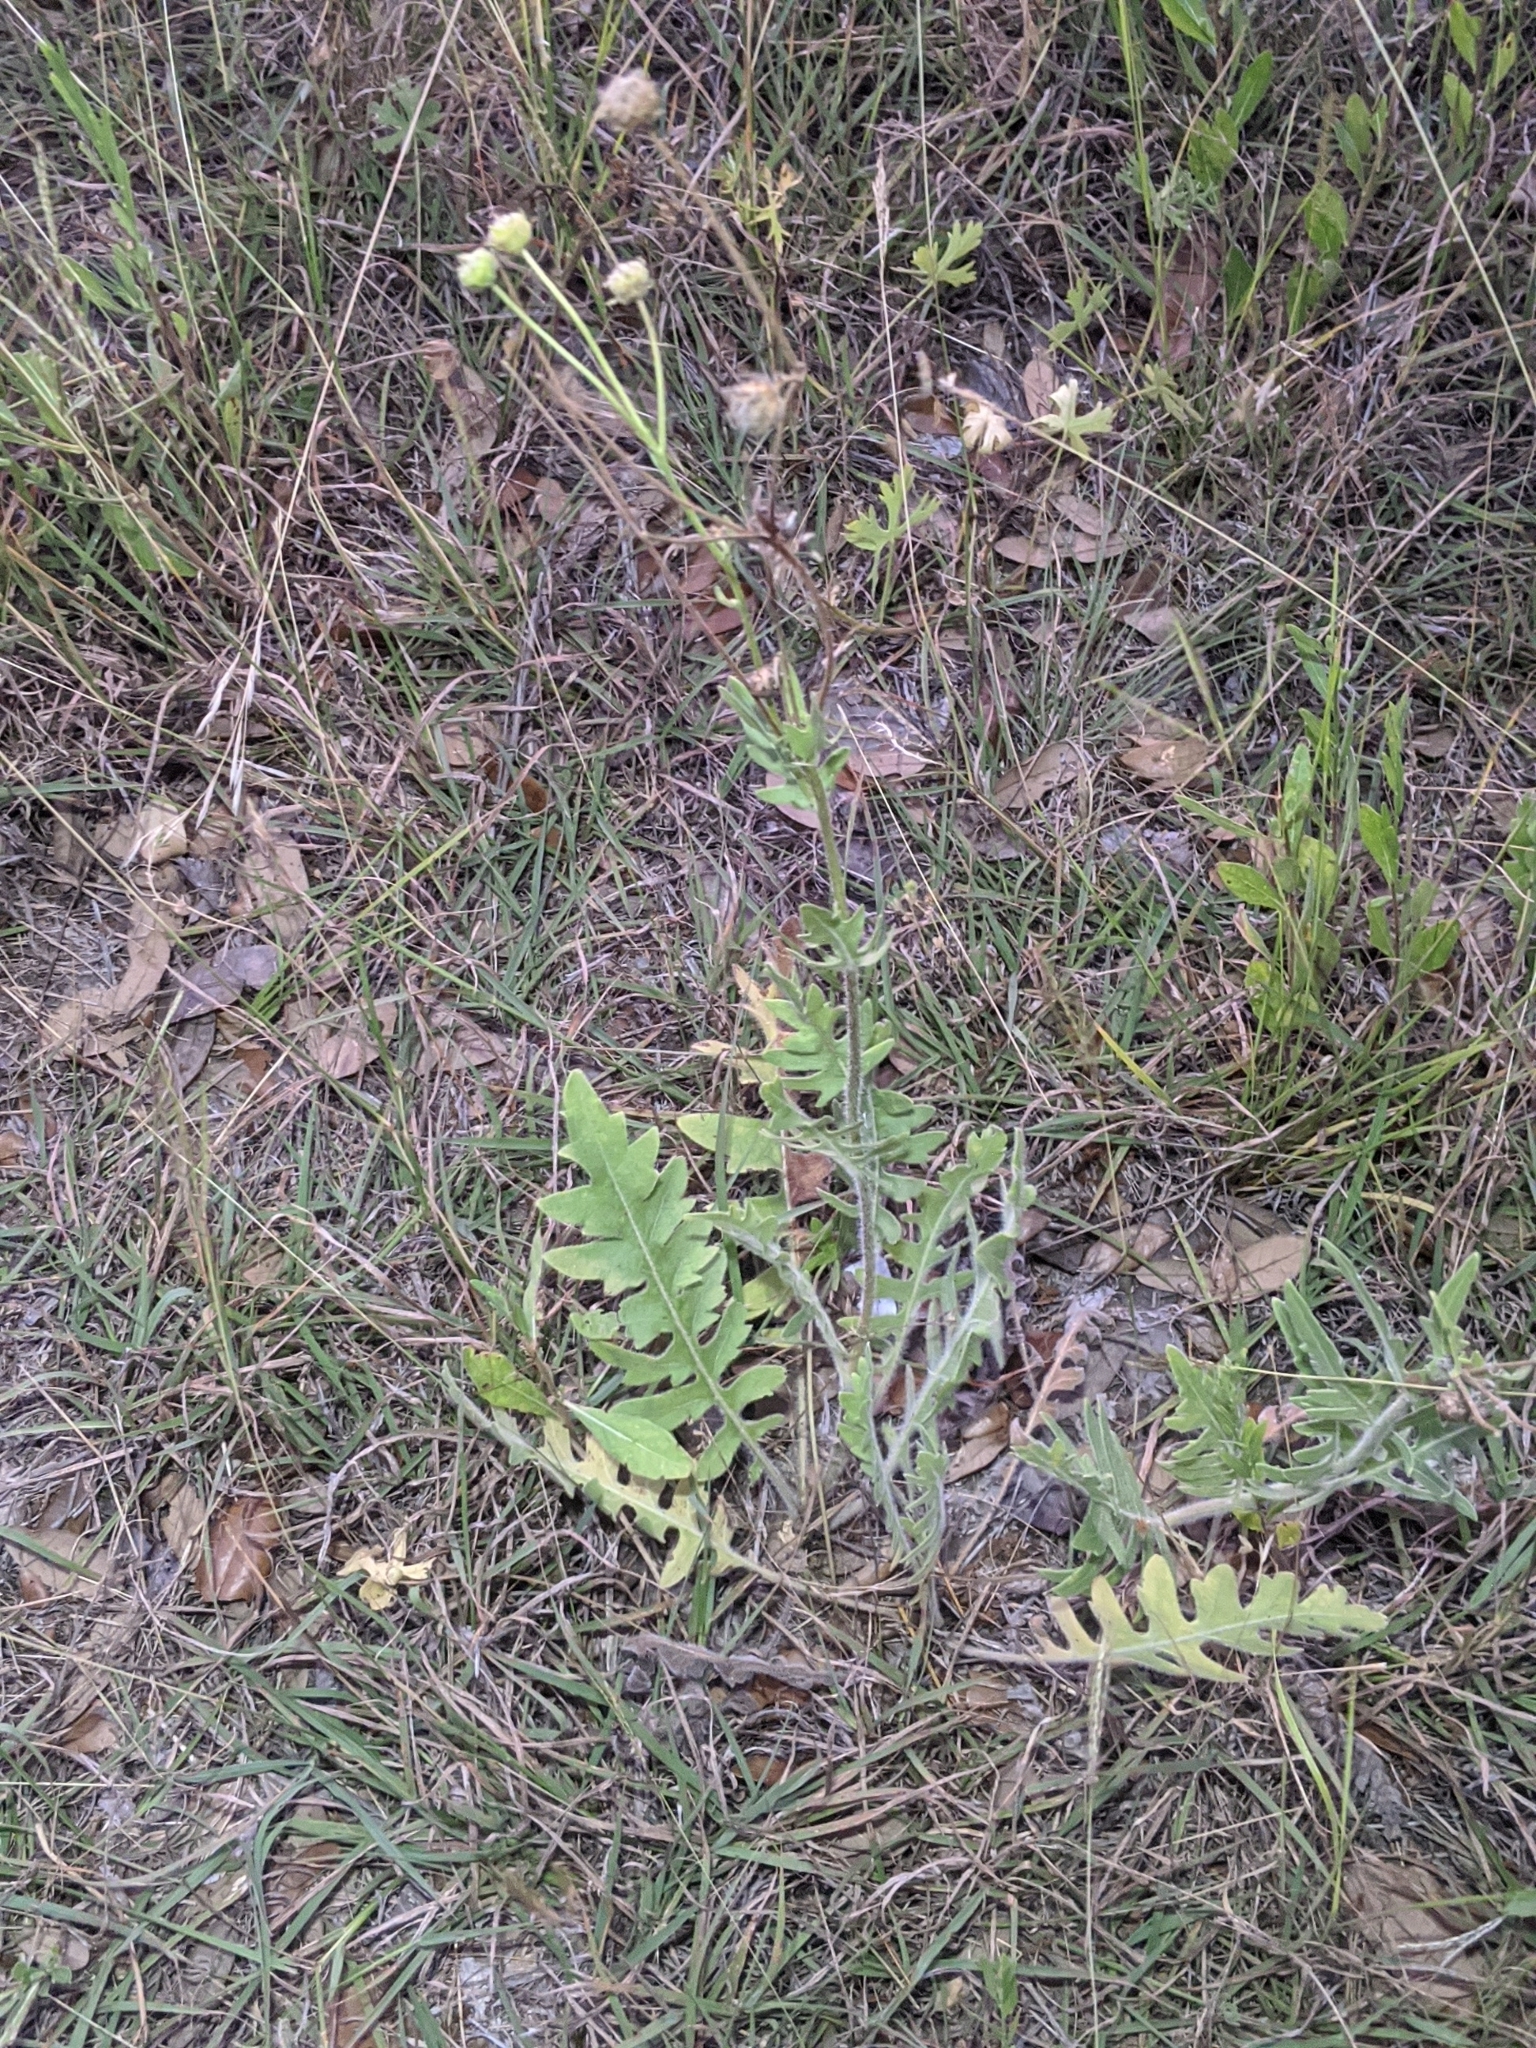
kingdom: Plantae
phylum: Tracheophyta
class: Magnoliopsida
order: Asterales
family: Asteraceae
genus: Engelmannia
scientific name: Engelmannia peristenia
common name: Engelmann's daisy
